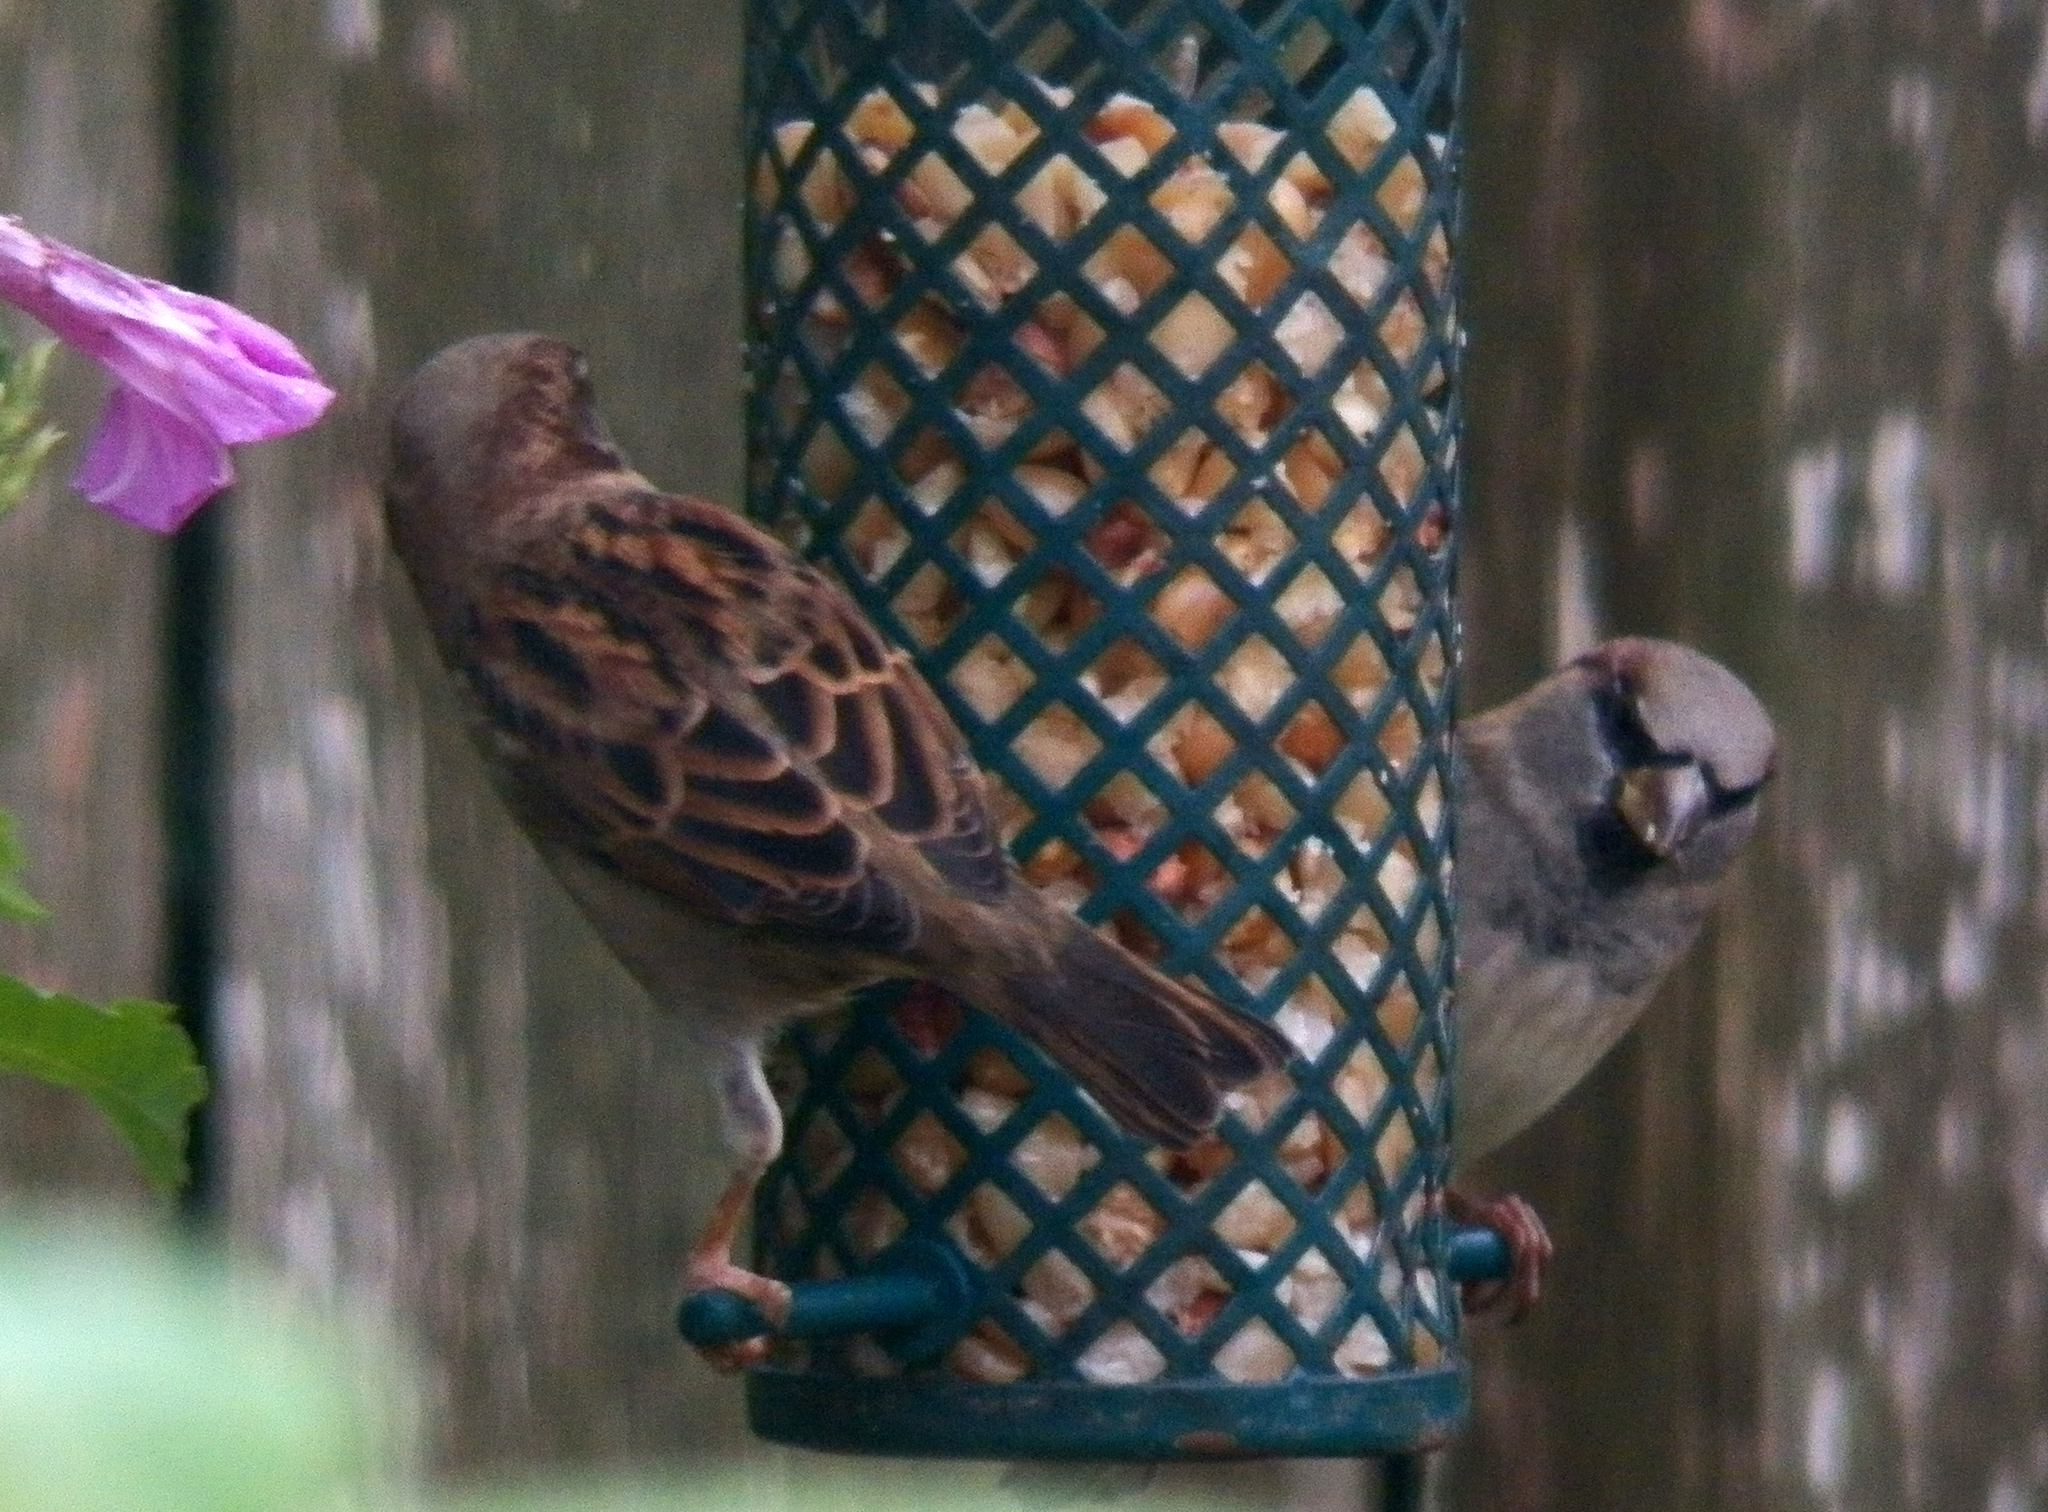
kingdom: Animalia
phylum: Chordata
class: Aves
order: Passeriformes
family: Passeridae
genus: Passer
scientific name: Passer domesticus
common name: House sparrow
